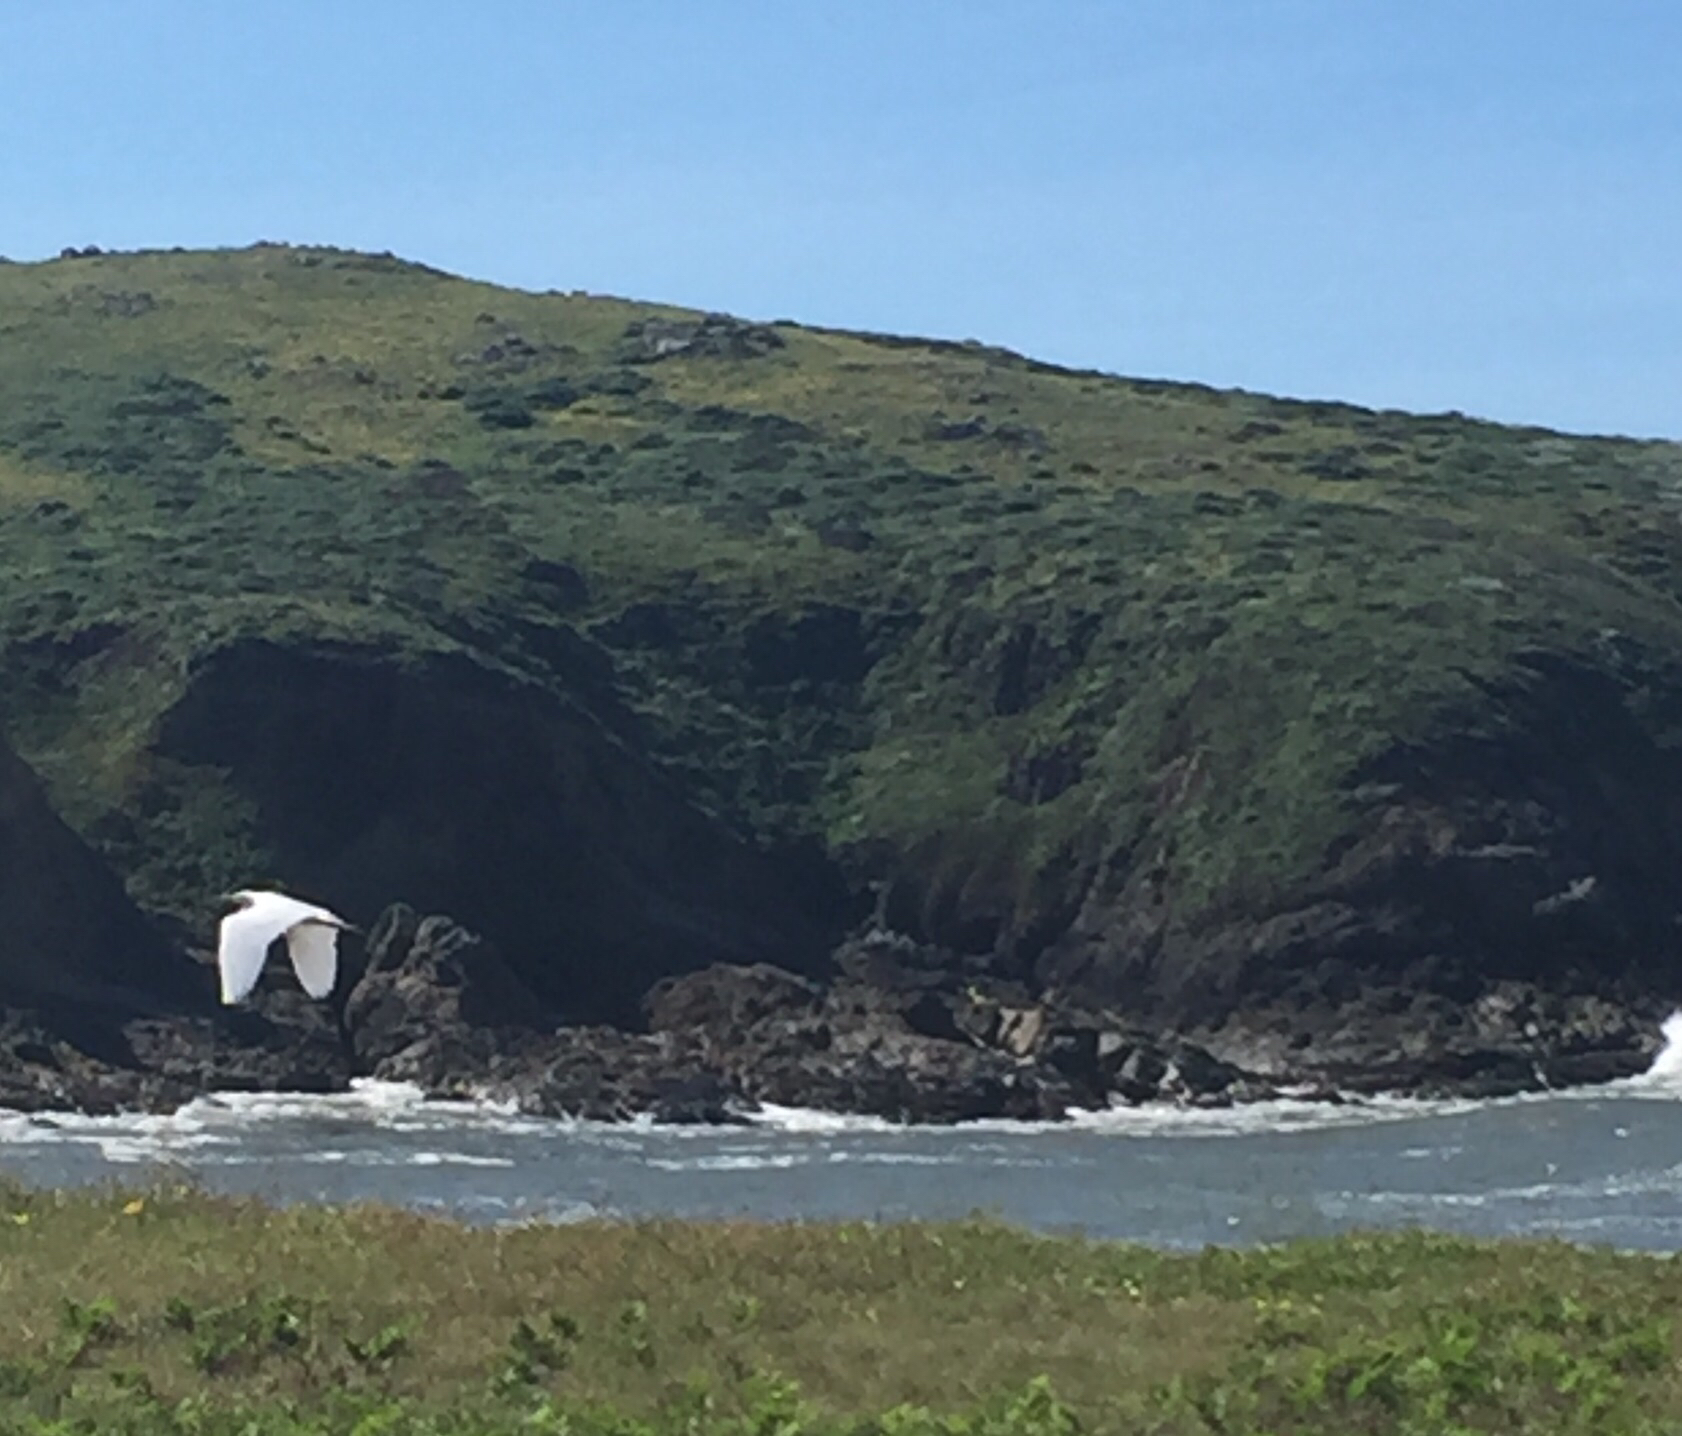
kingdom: Animalia
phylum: Chordata
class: Aves
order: Pelecaniformes
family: Ardeidae
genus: Ardea
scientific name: Ardea alba
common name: Great egret
